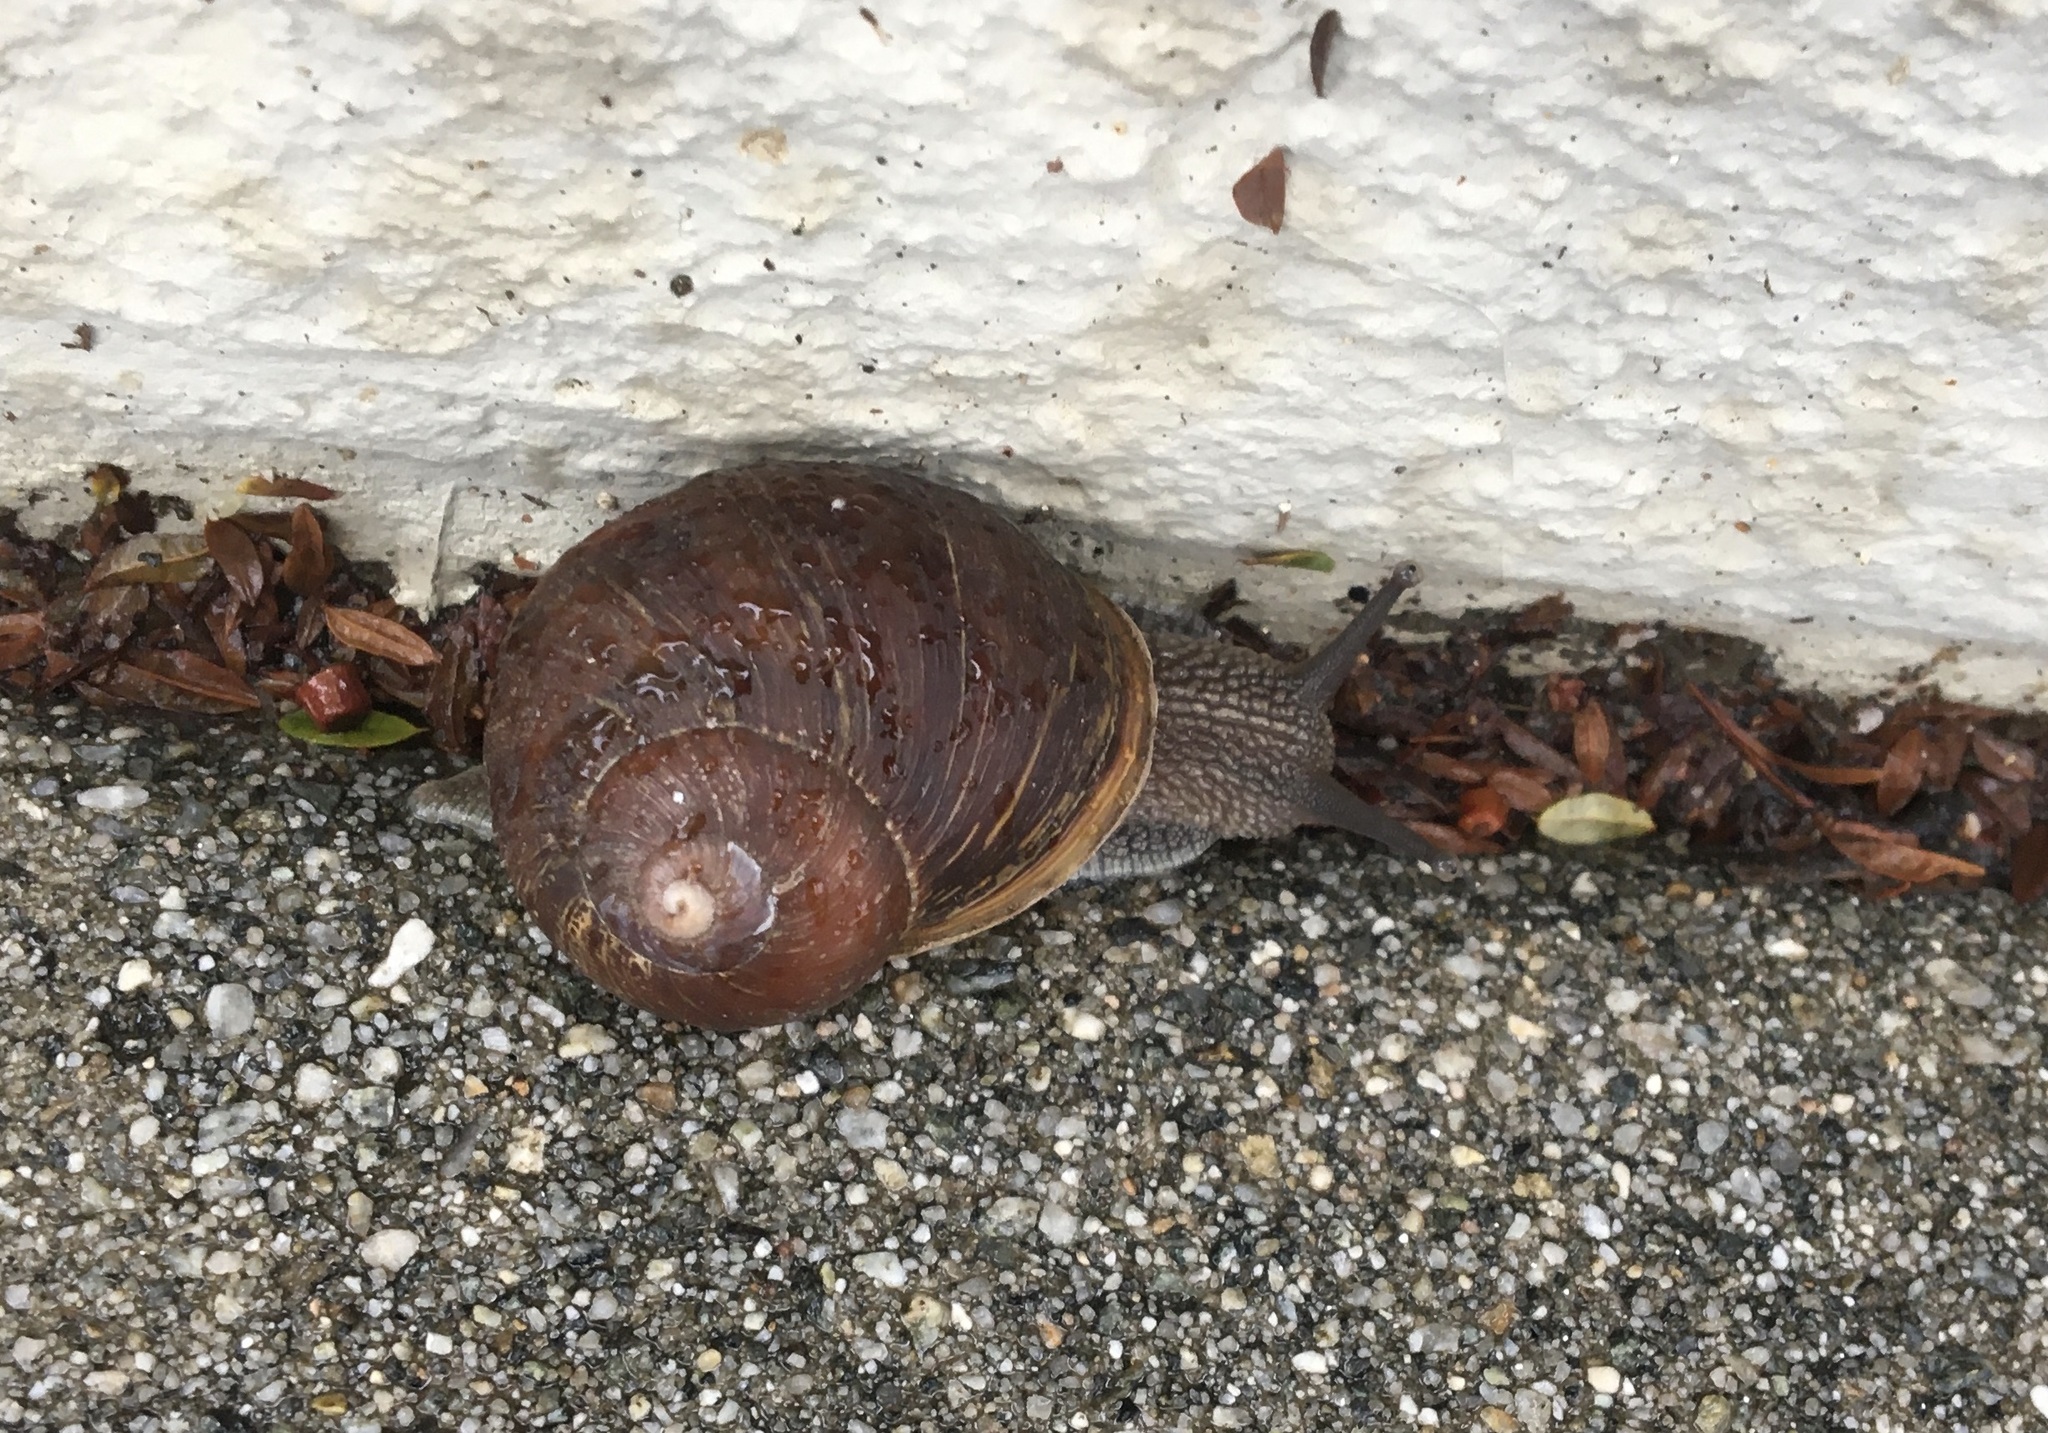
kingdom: Animalia
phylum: Mollusca
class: Gastropoda
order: Stylommatophora
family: Helicidae
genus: Cornu
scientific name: Cornu aspersum
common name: Brown garden snail
